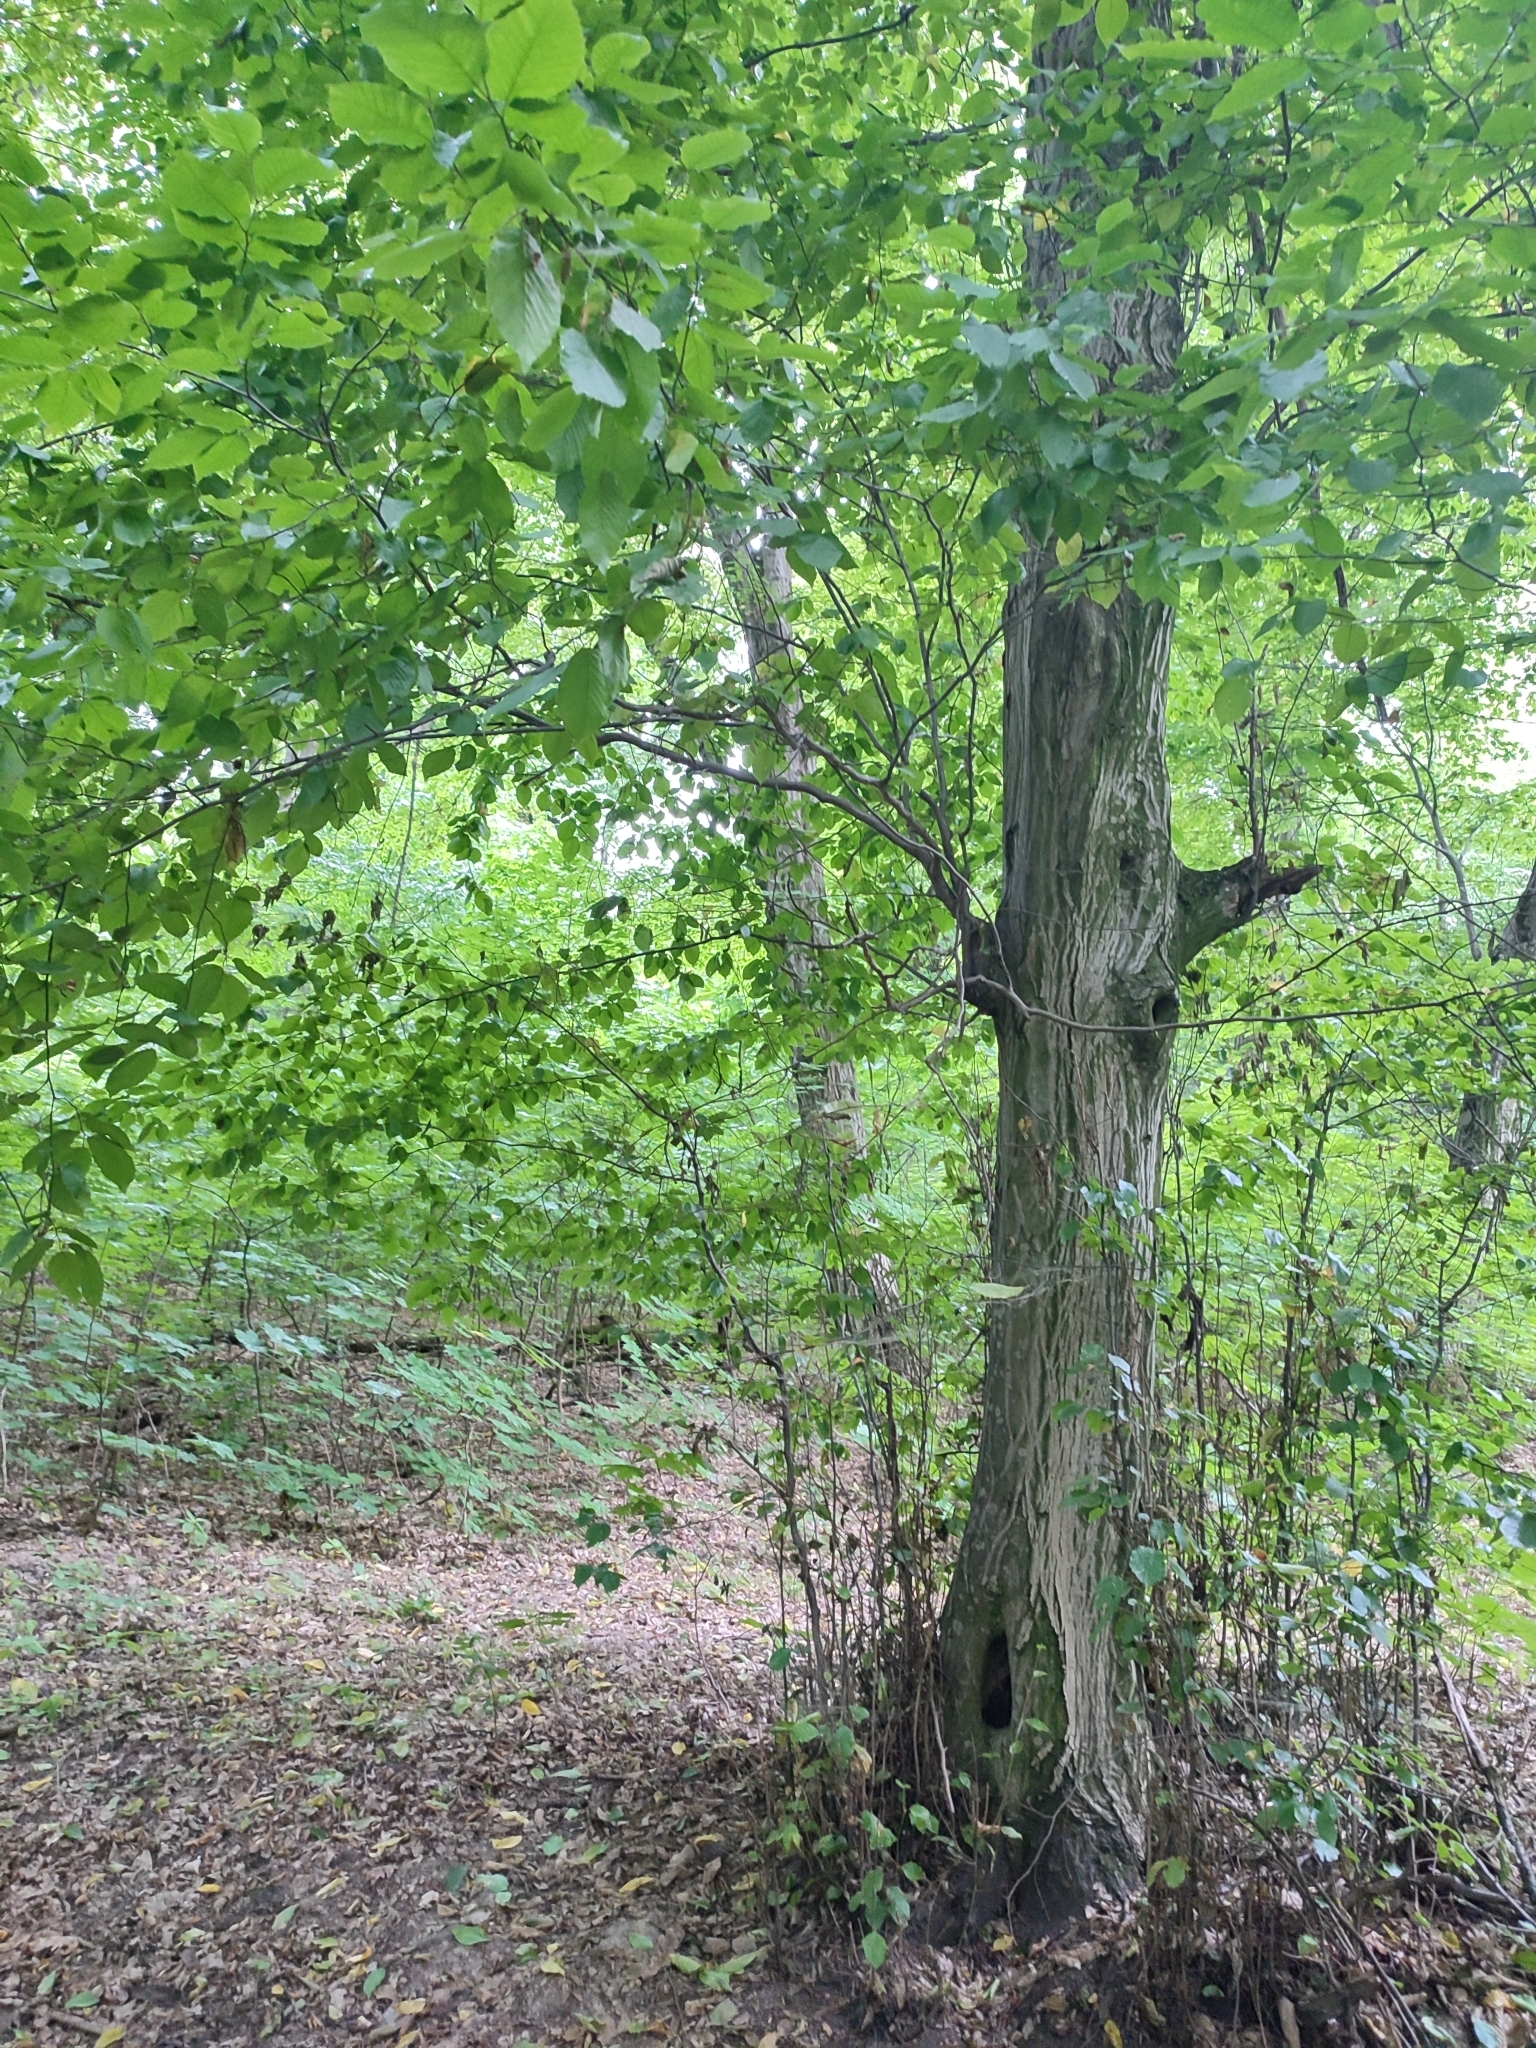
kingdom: Plantae
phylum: Tracheophyta
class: Magnoliopsida
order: Fagales
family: Betulaceae
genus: Carpinus
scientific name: Carpinus betulus
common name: Hornbeam
